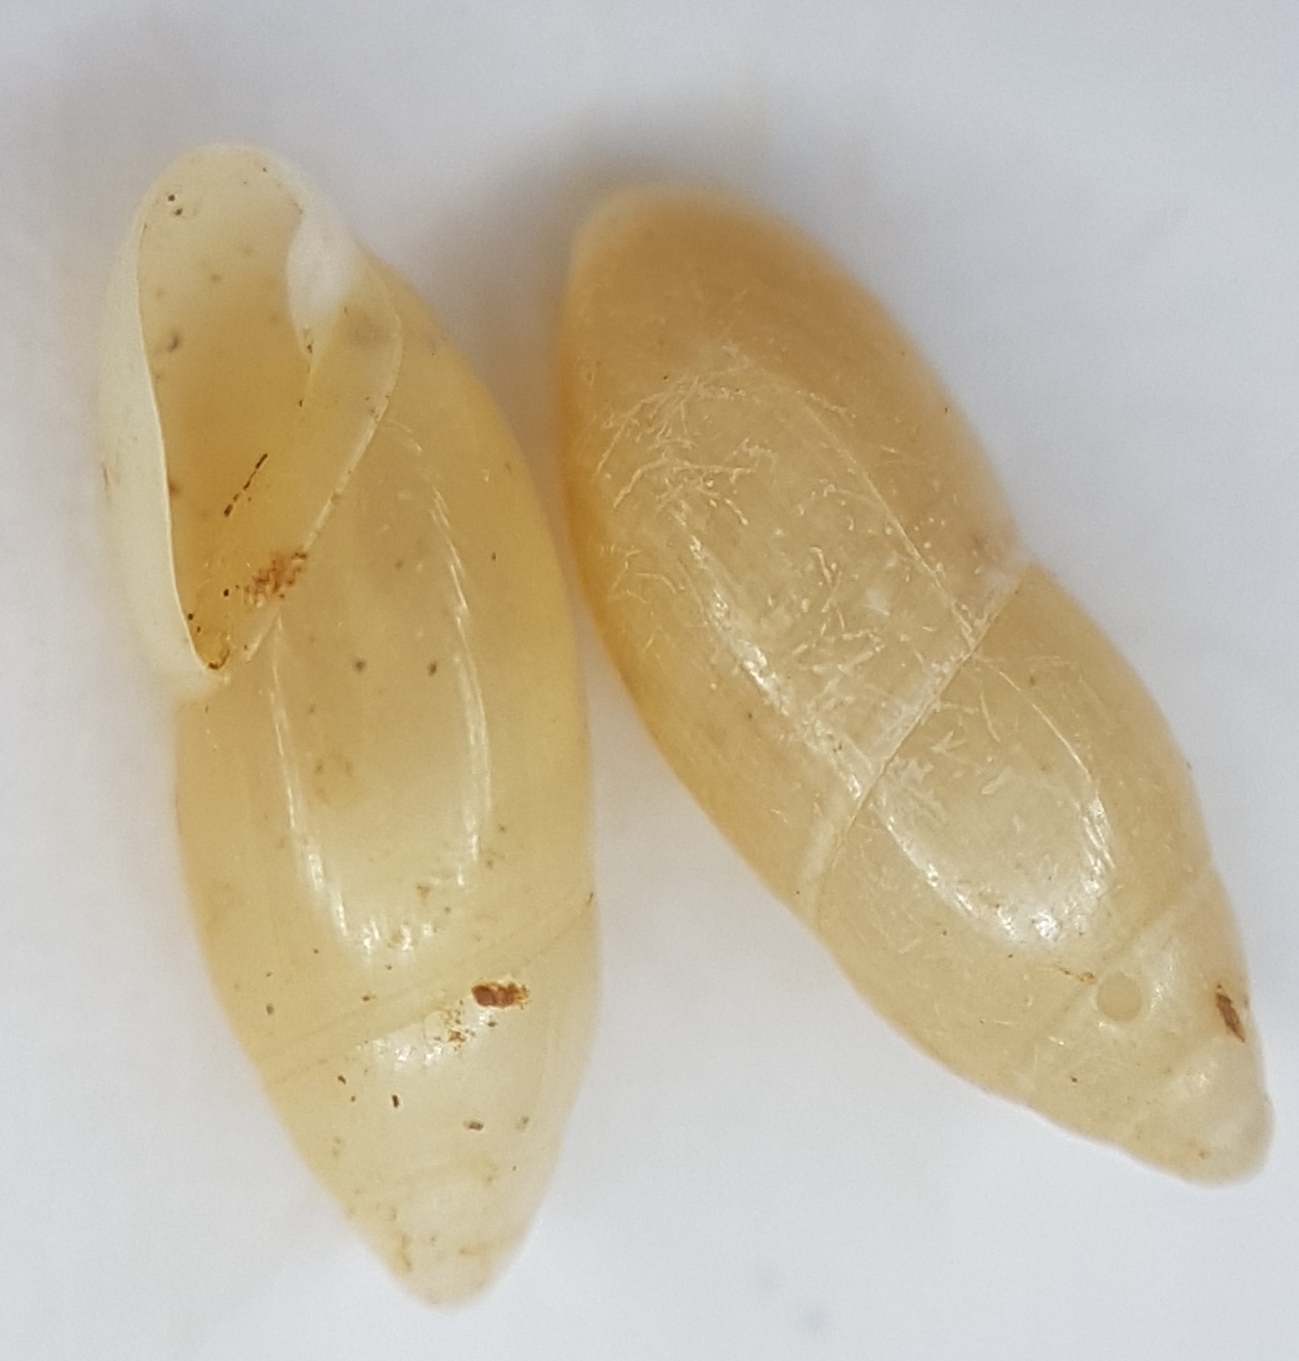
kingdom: Animalia
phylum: Mollusca
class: Gastropoda
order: Stylommatophora
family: Ferussaciidae
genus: Ferussacia
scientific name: Ferussacia folliculum
